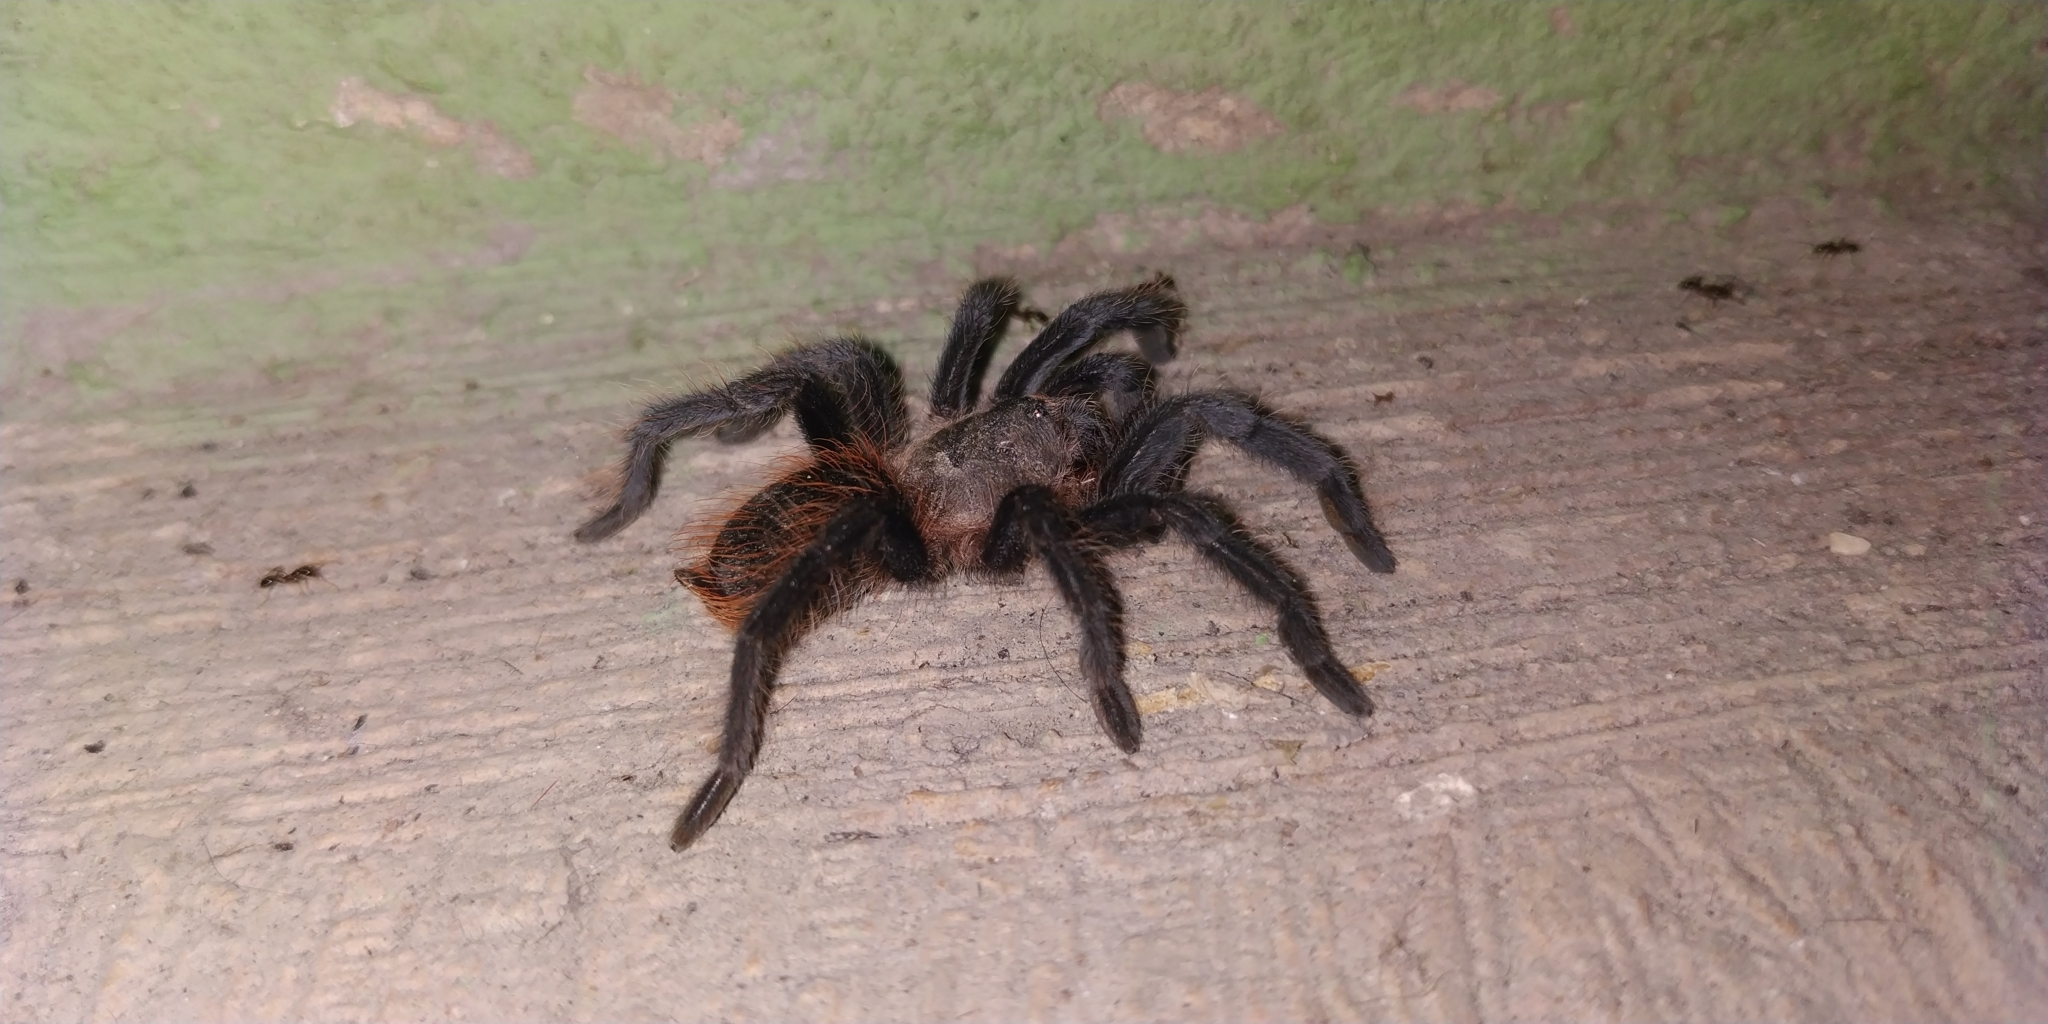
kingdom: Animalia
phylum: Arthropoda
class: Arachnida
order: Araneae
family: Theraphosidae
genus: Tliltocatl
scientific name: Tliltocatl kahlenbergi
